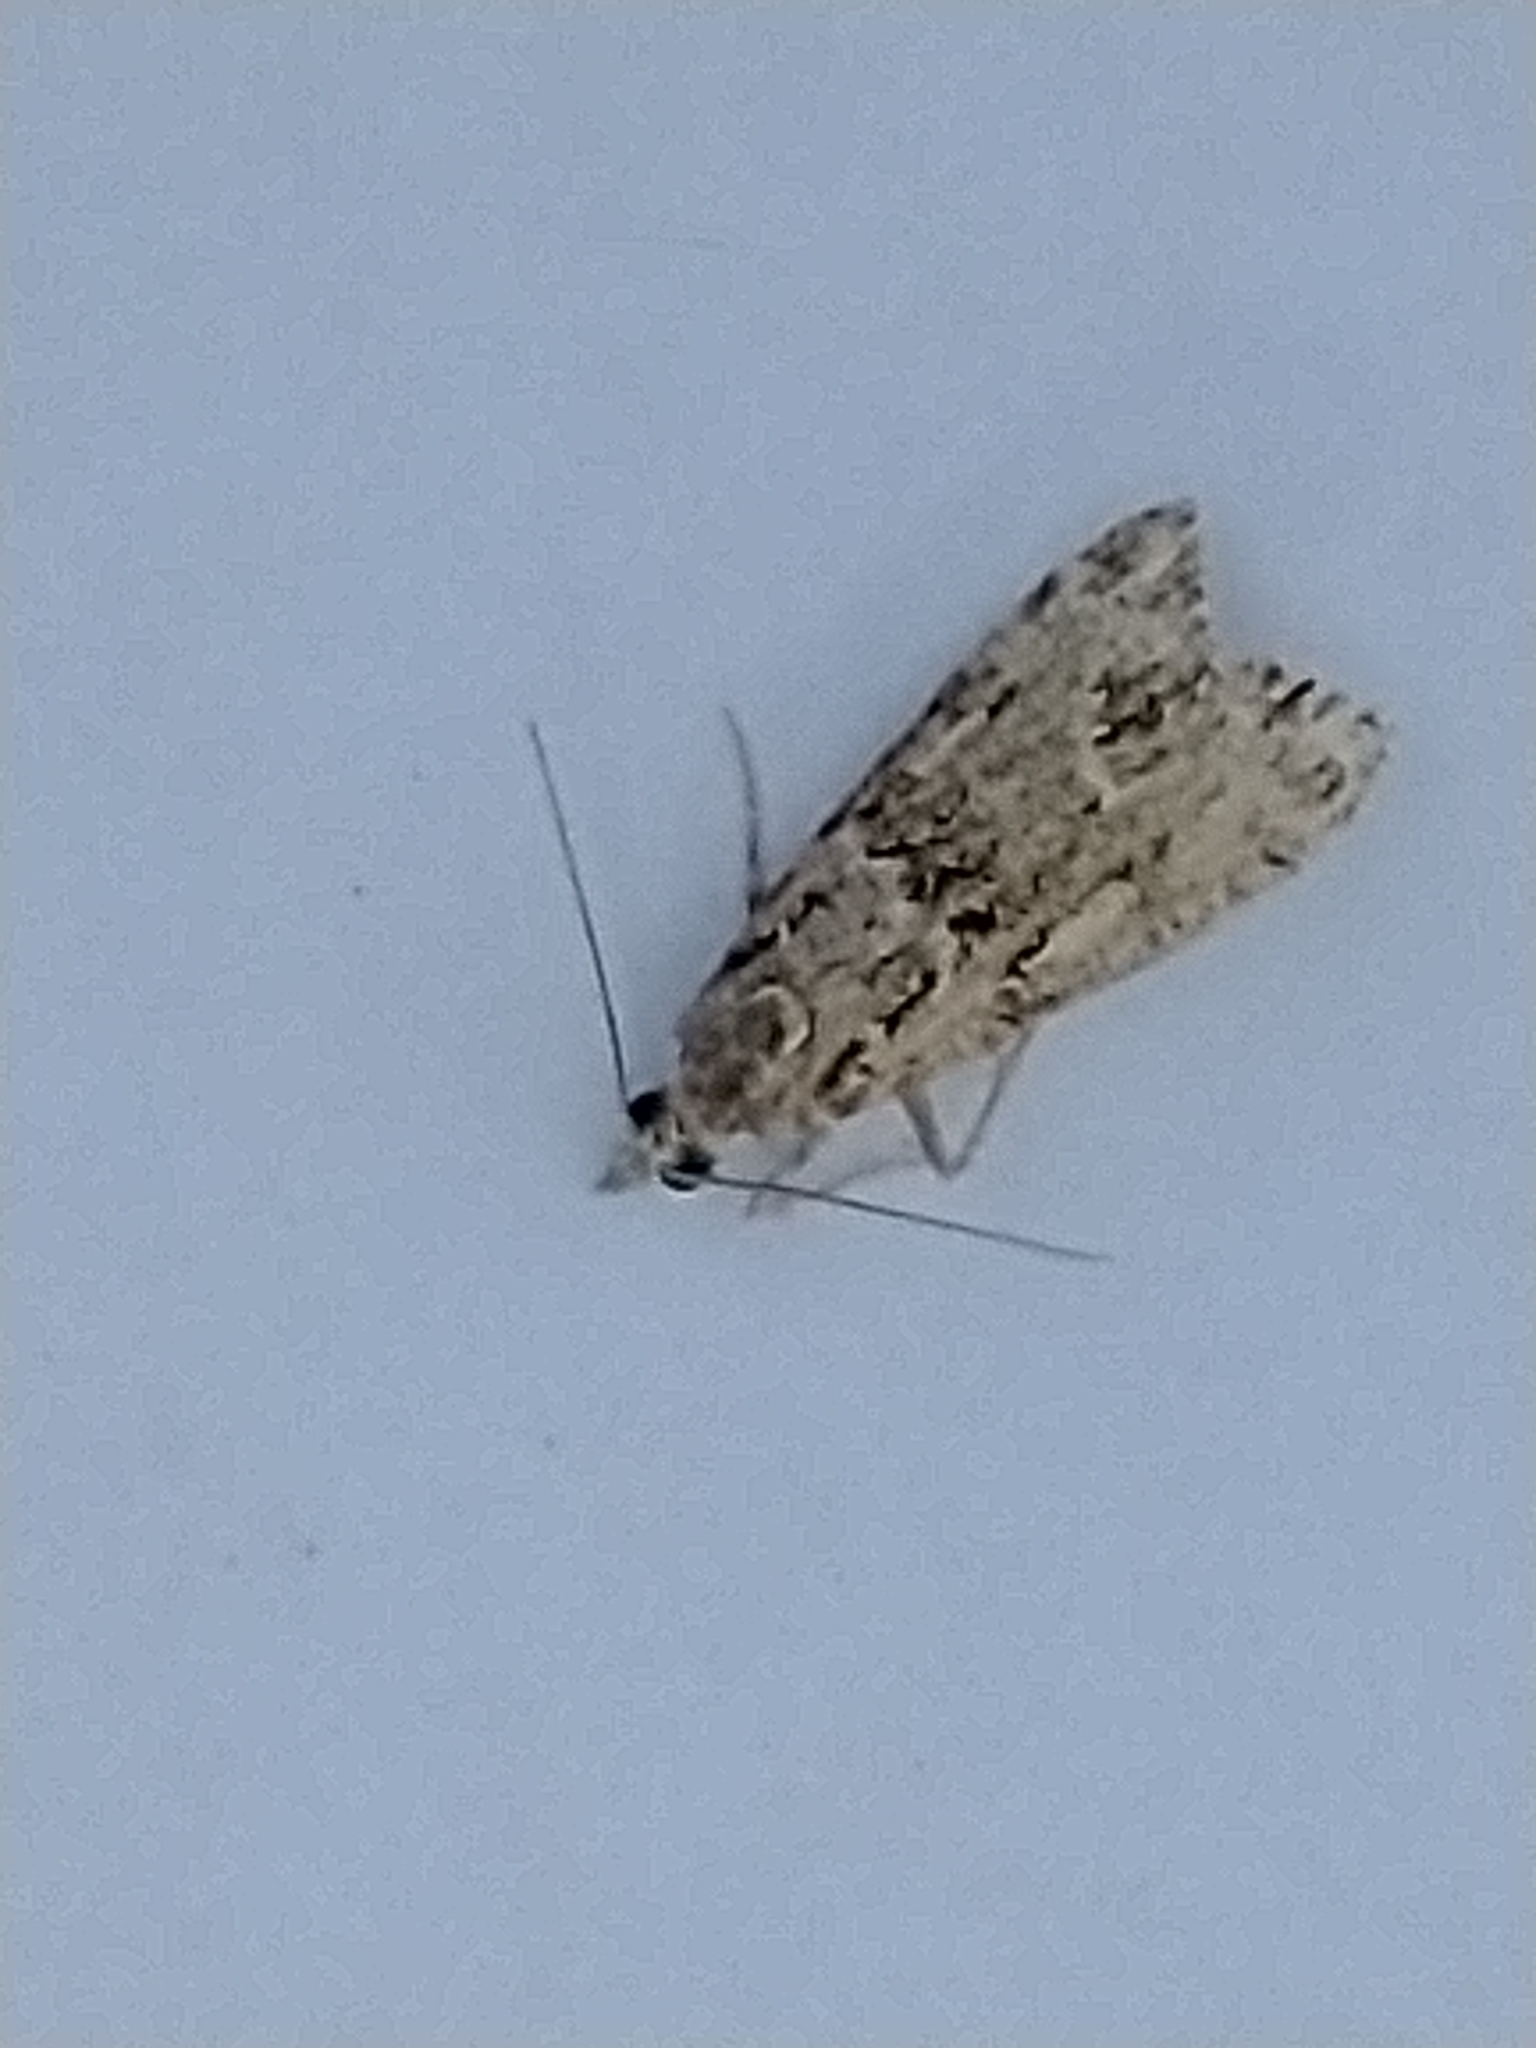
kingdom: Animalia
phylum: Arthropoda
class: Insecta
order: Lepidoptera
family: Crambidae
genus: Eudonia
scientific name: Eudonia truncicolella
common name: Ground-moss grey
